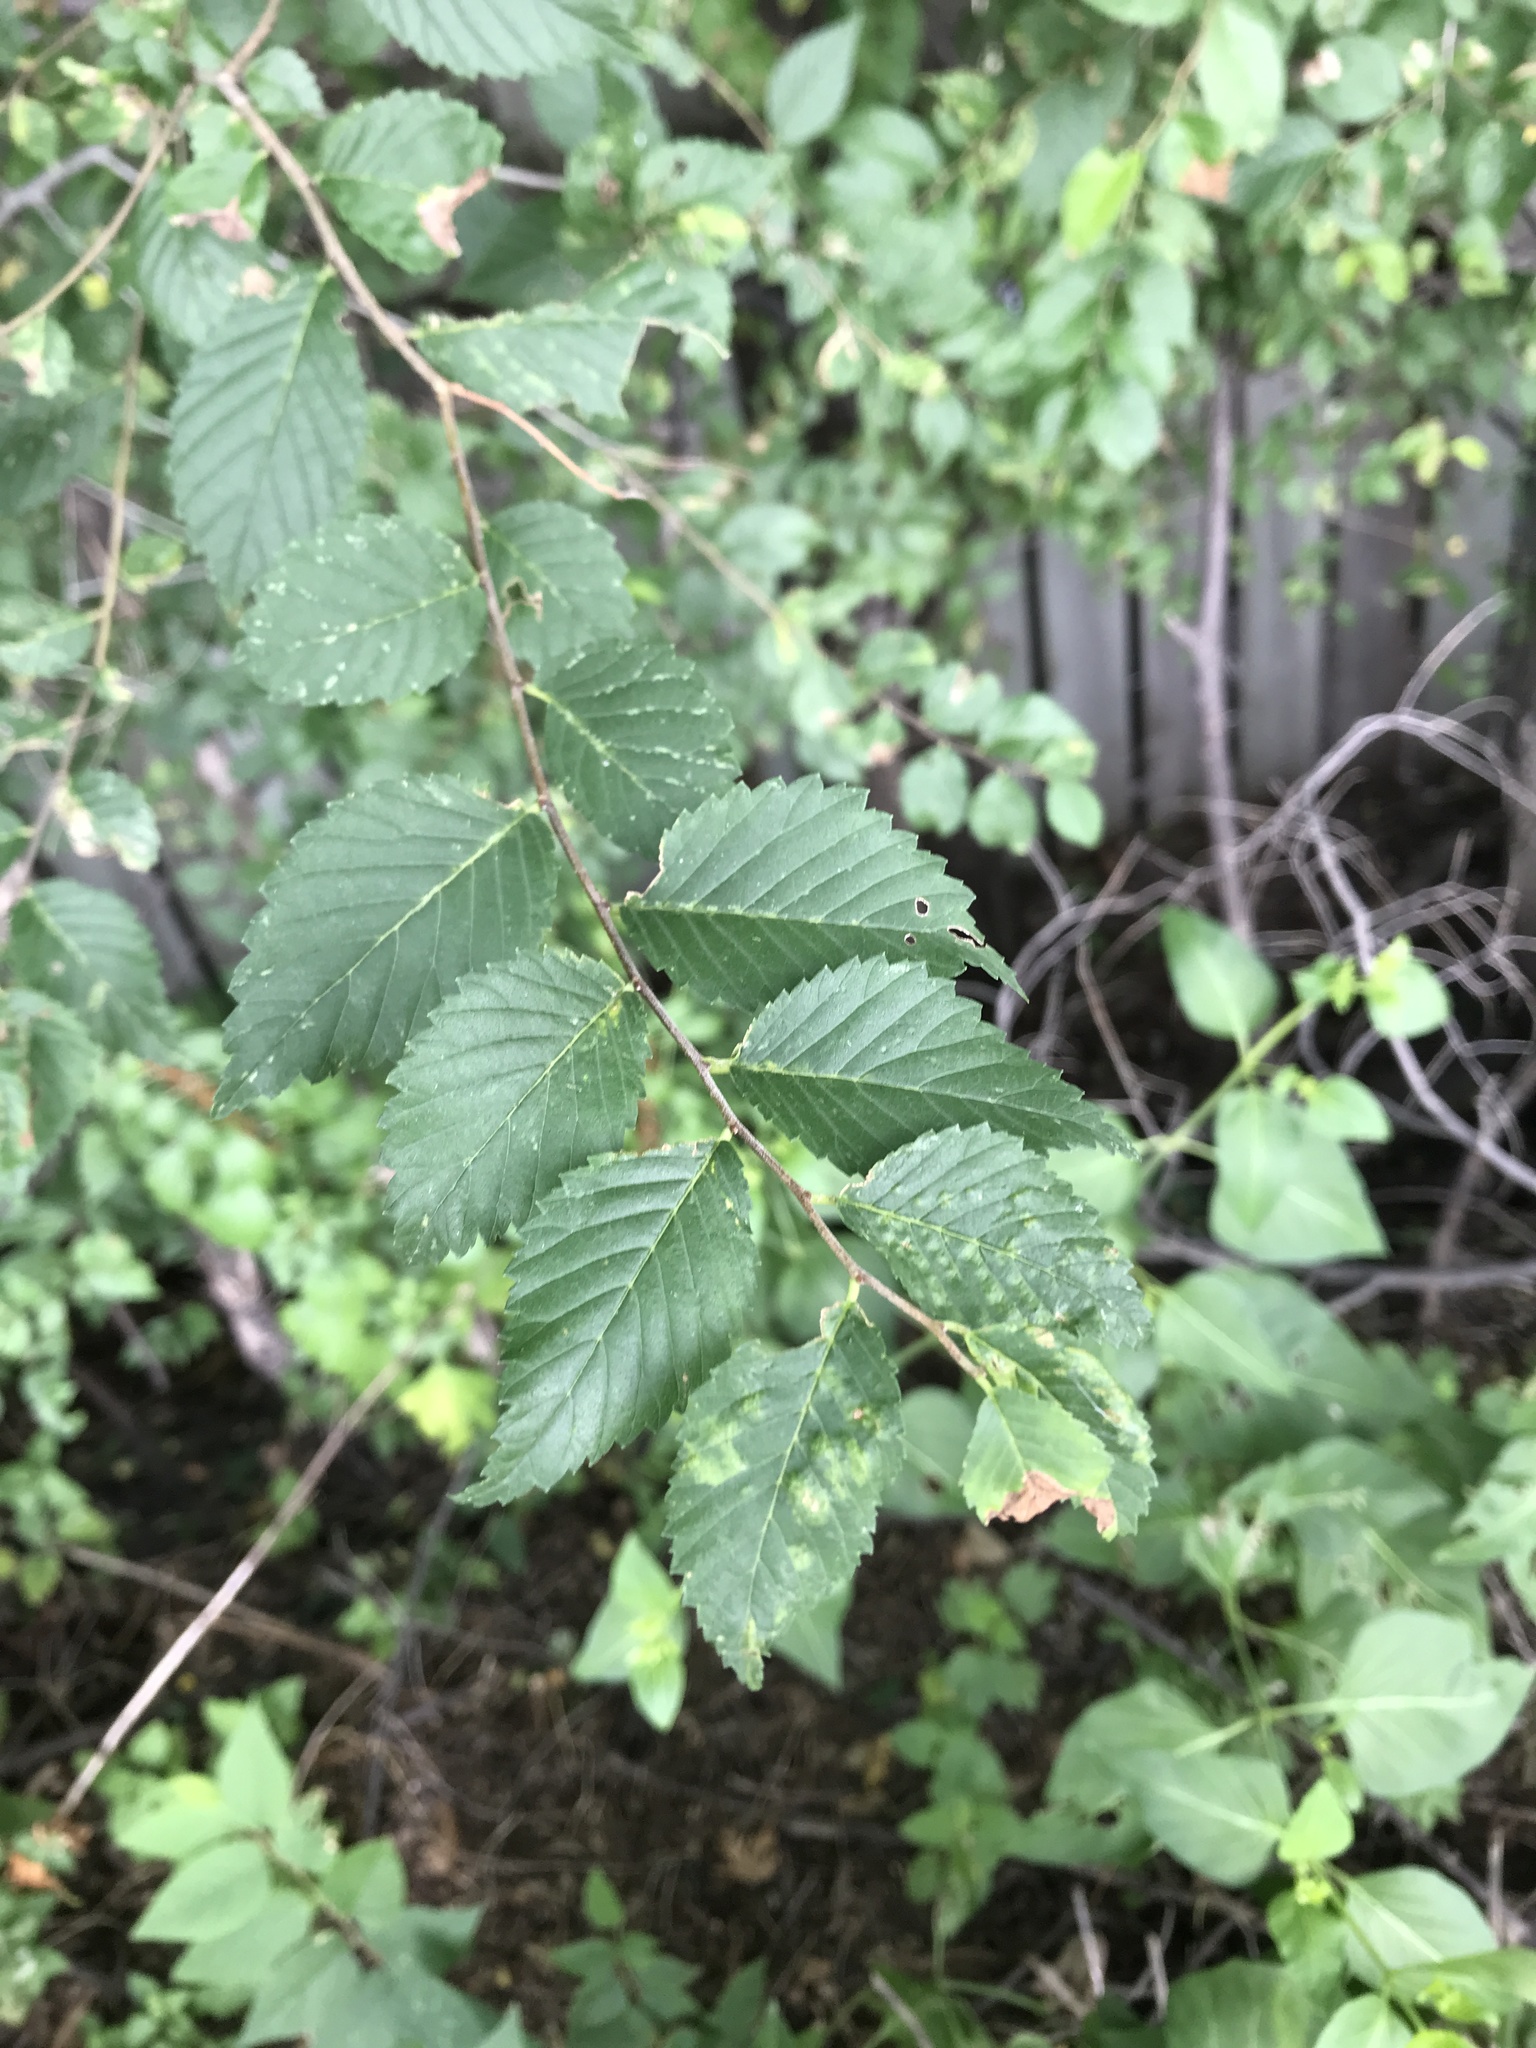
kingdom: Plantae
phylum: Tracheophyta
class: Magnoliopsida
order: Rosales
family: Ulmaceae
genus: Ulmus
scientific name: Ulmus pumila
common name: Siberian elm
